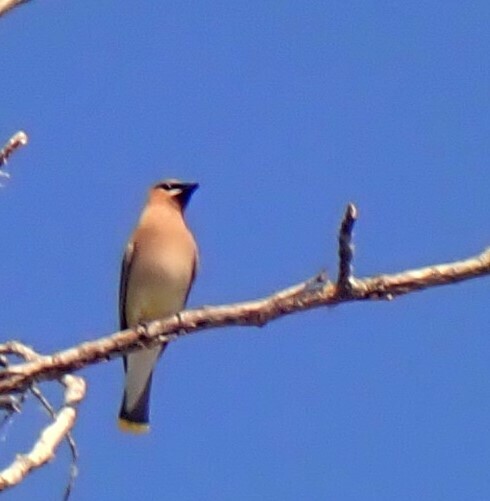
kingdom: Animalia
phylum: Chordata
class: Aves
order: Passeriformes
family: Bombycillidae
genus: Bombycilla
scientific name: Bombycilla cedrorum
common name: Cedar waxwing
